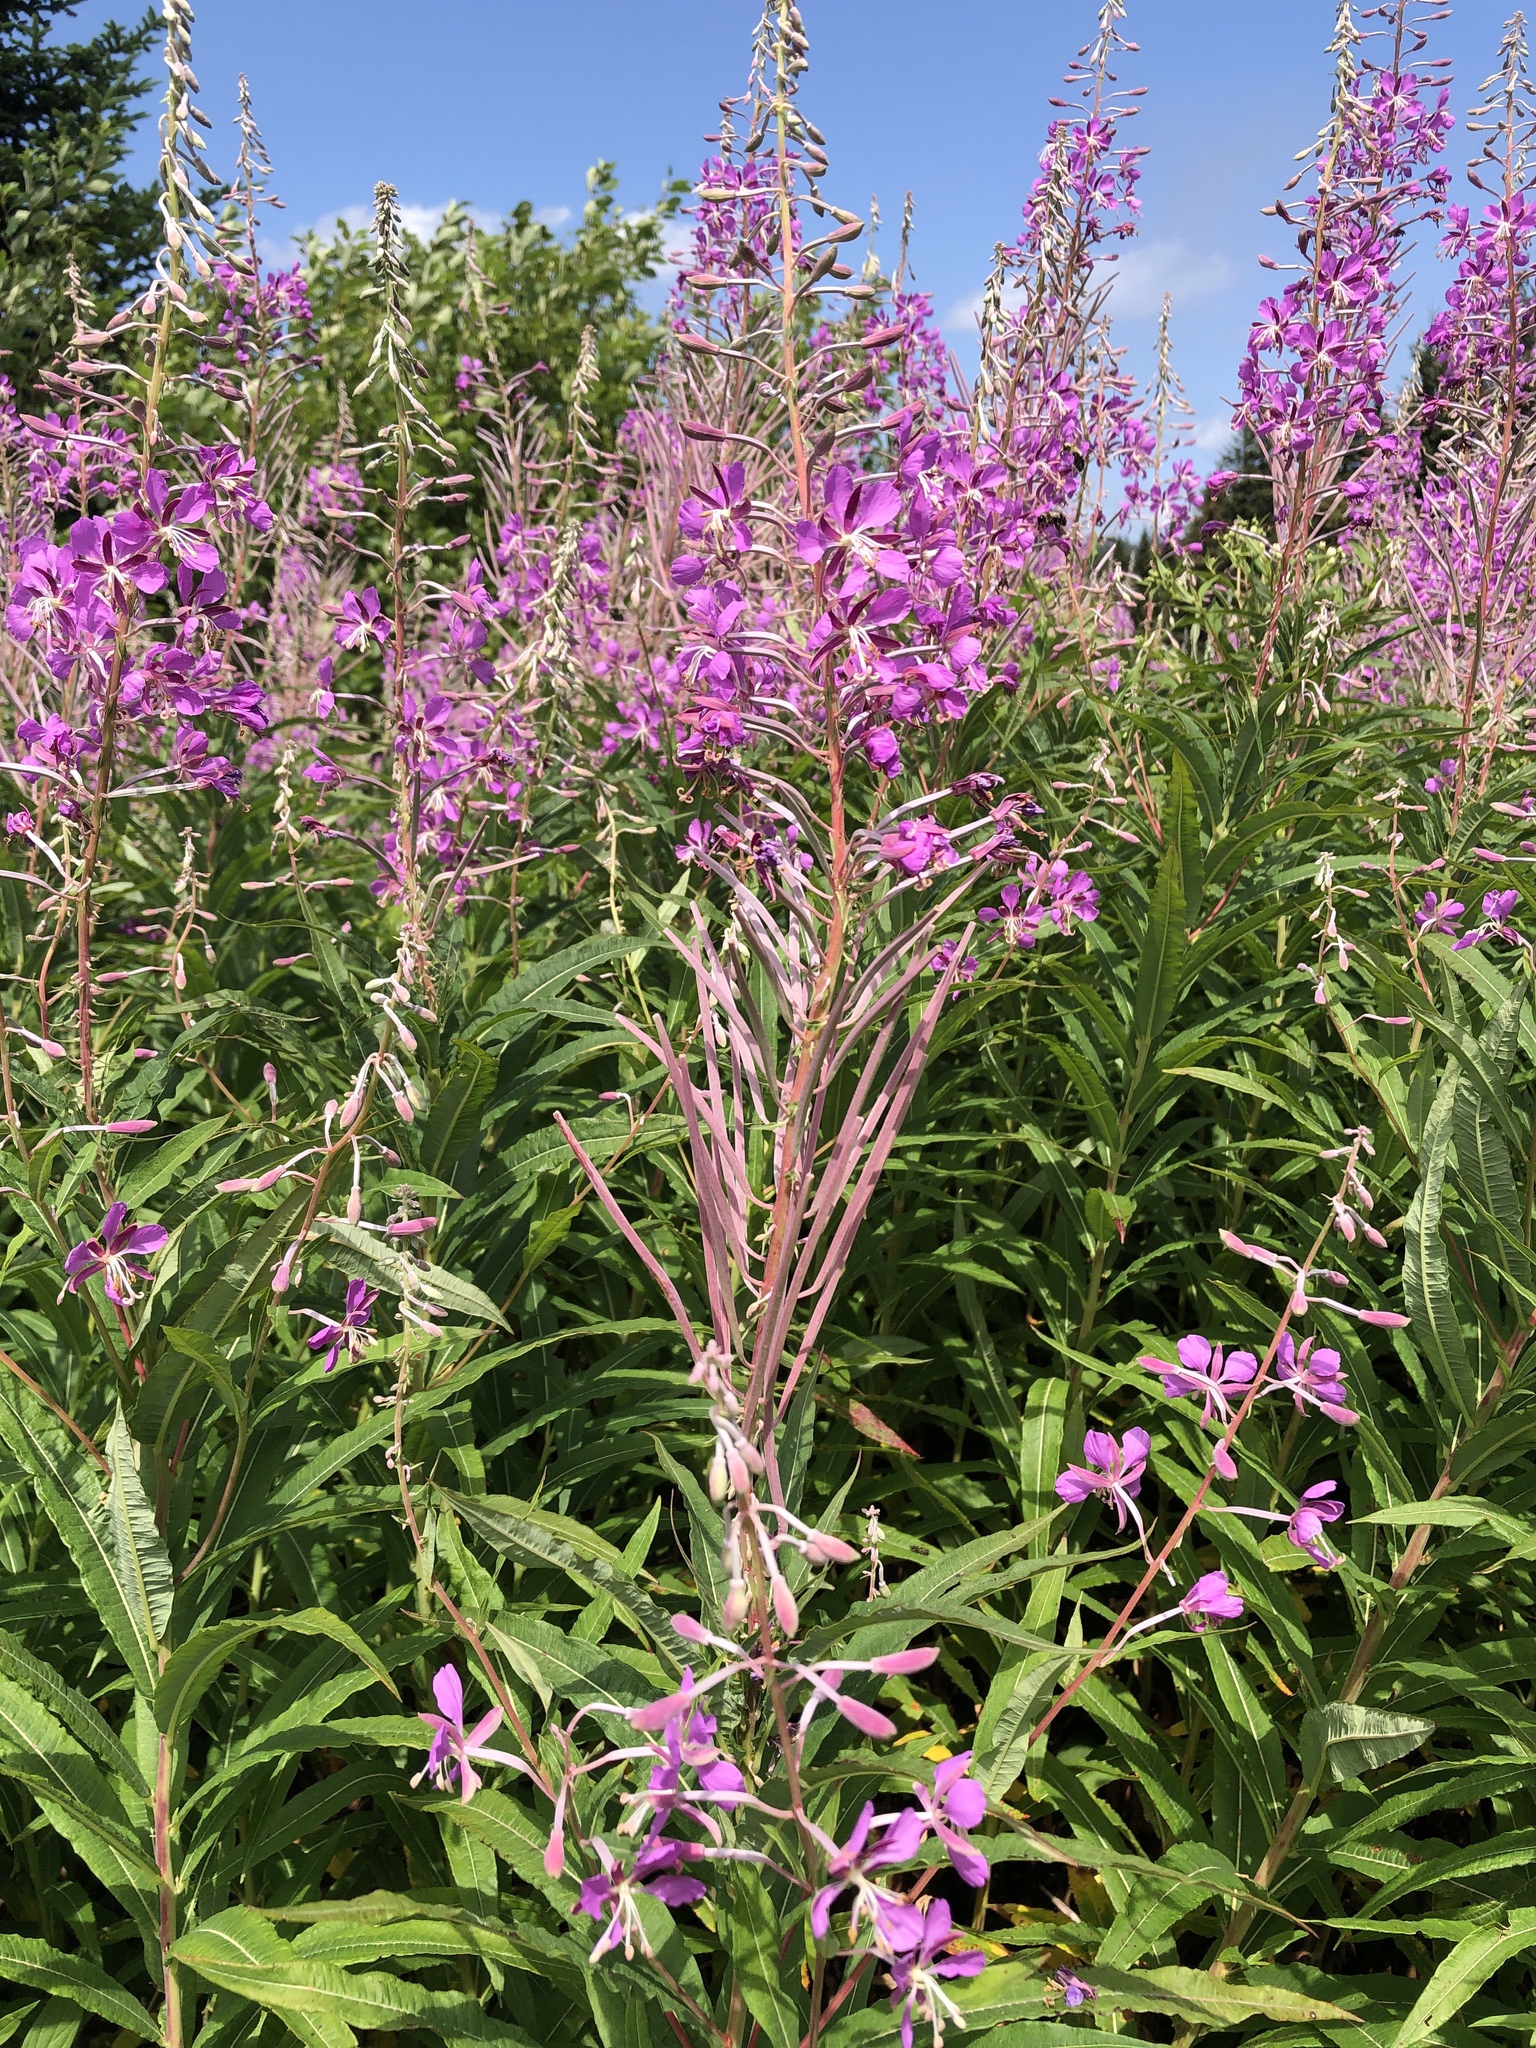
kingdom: Plantae
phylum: Tracheophyta
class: Magnoliopsida
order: Myrtales
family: Onagraceae
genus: Chamaenerion
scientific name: Chamaenerion angustifolium
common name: Fireweed
